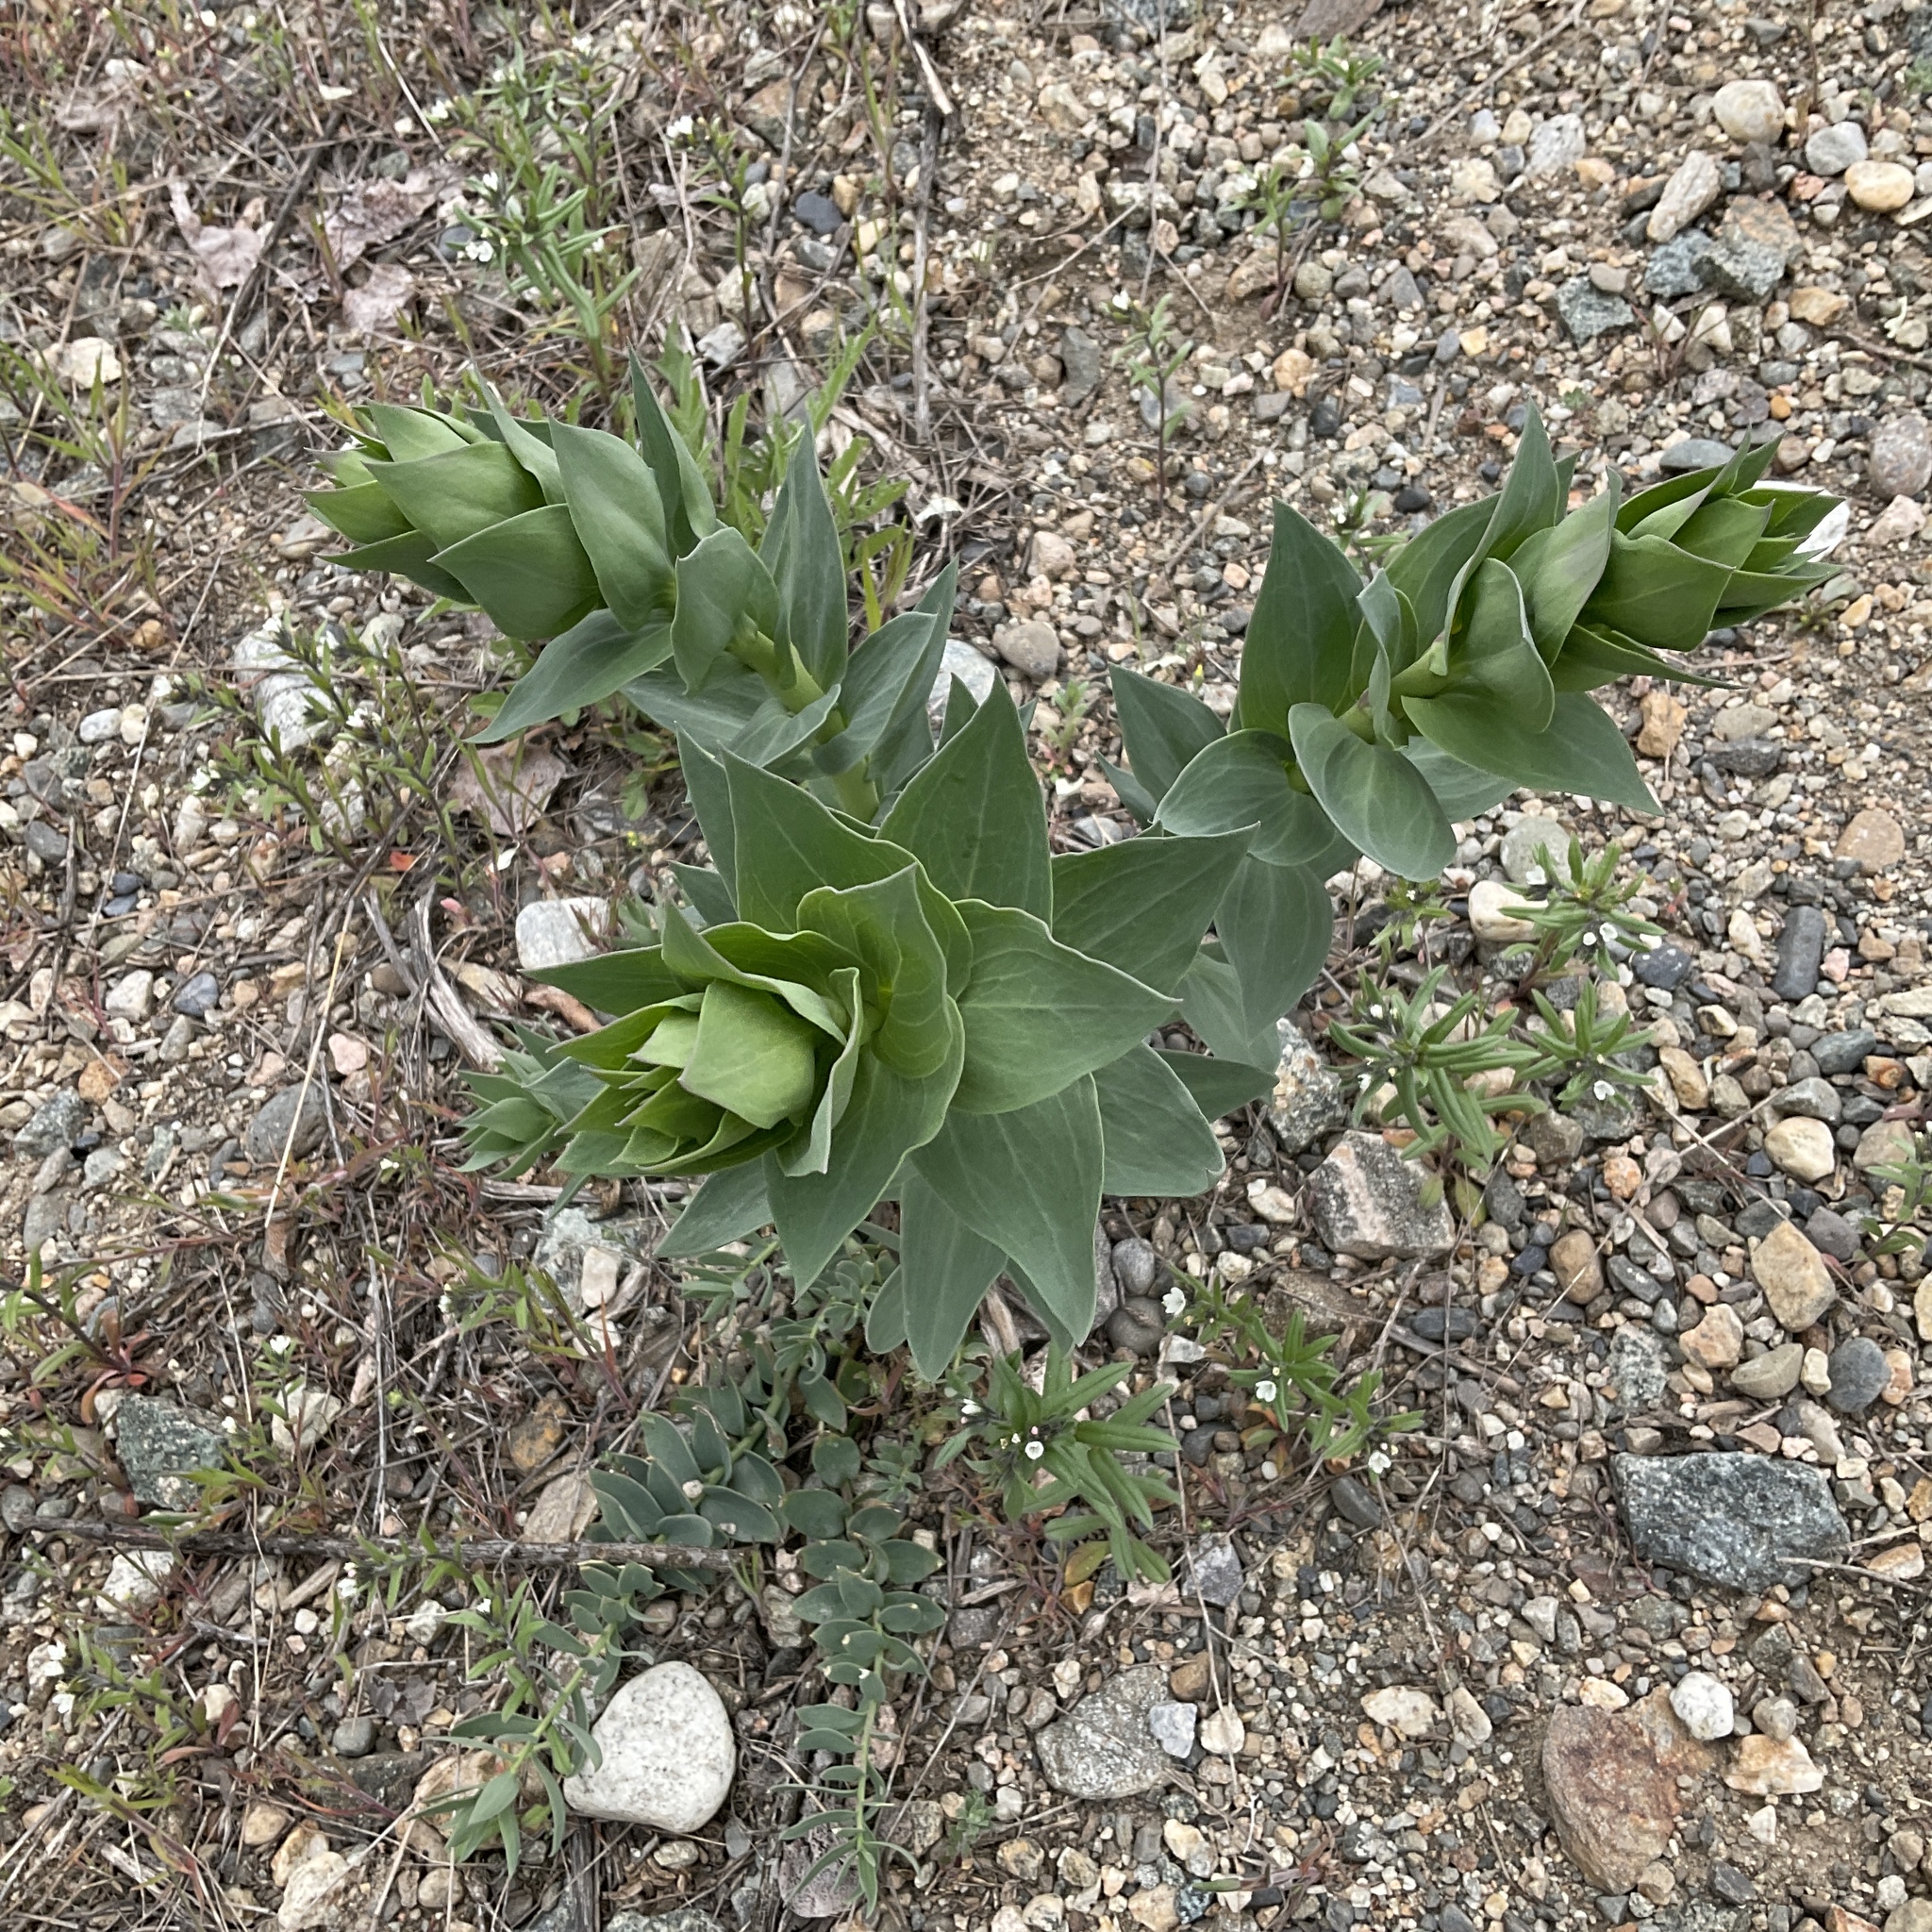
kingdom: Plantae
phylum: Tracheophyta
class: Magnoliopsida
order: Lamiales
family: Plantaginaceae
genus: Linaria
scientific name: Linaria dalmatica
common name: Dalmatian toadflax
